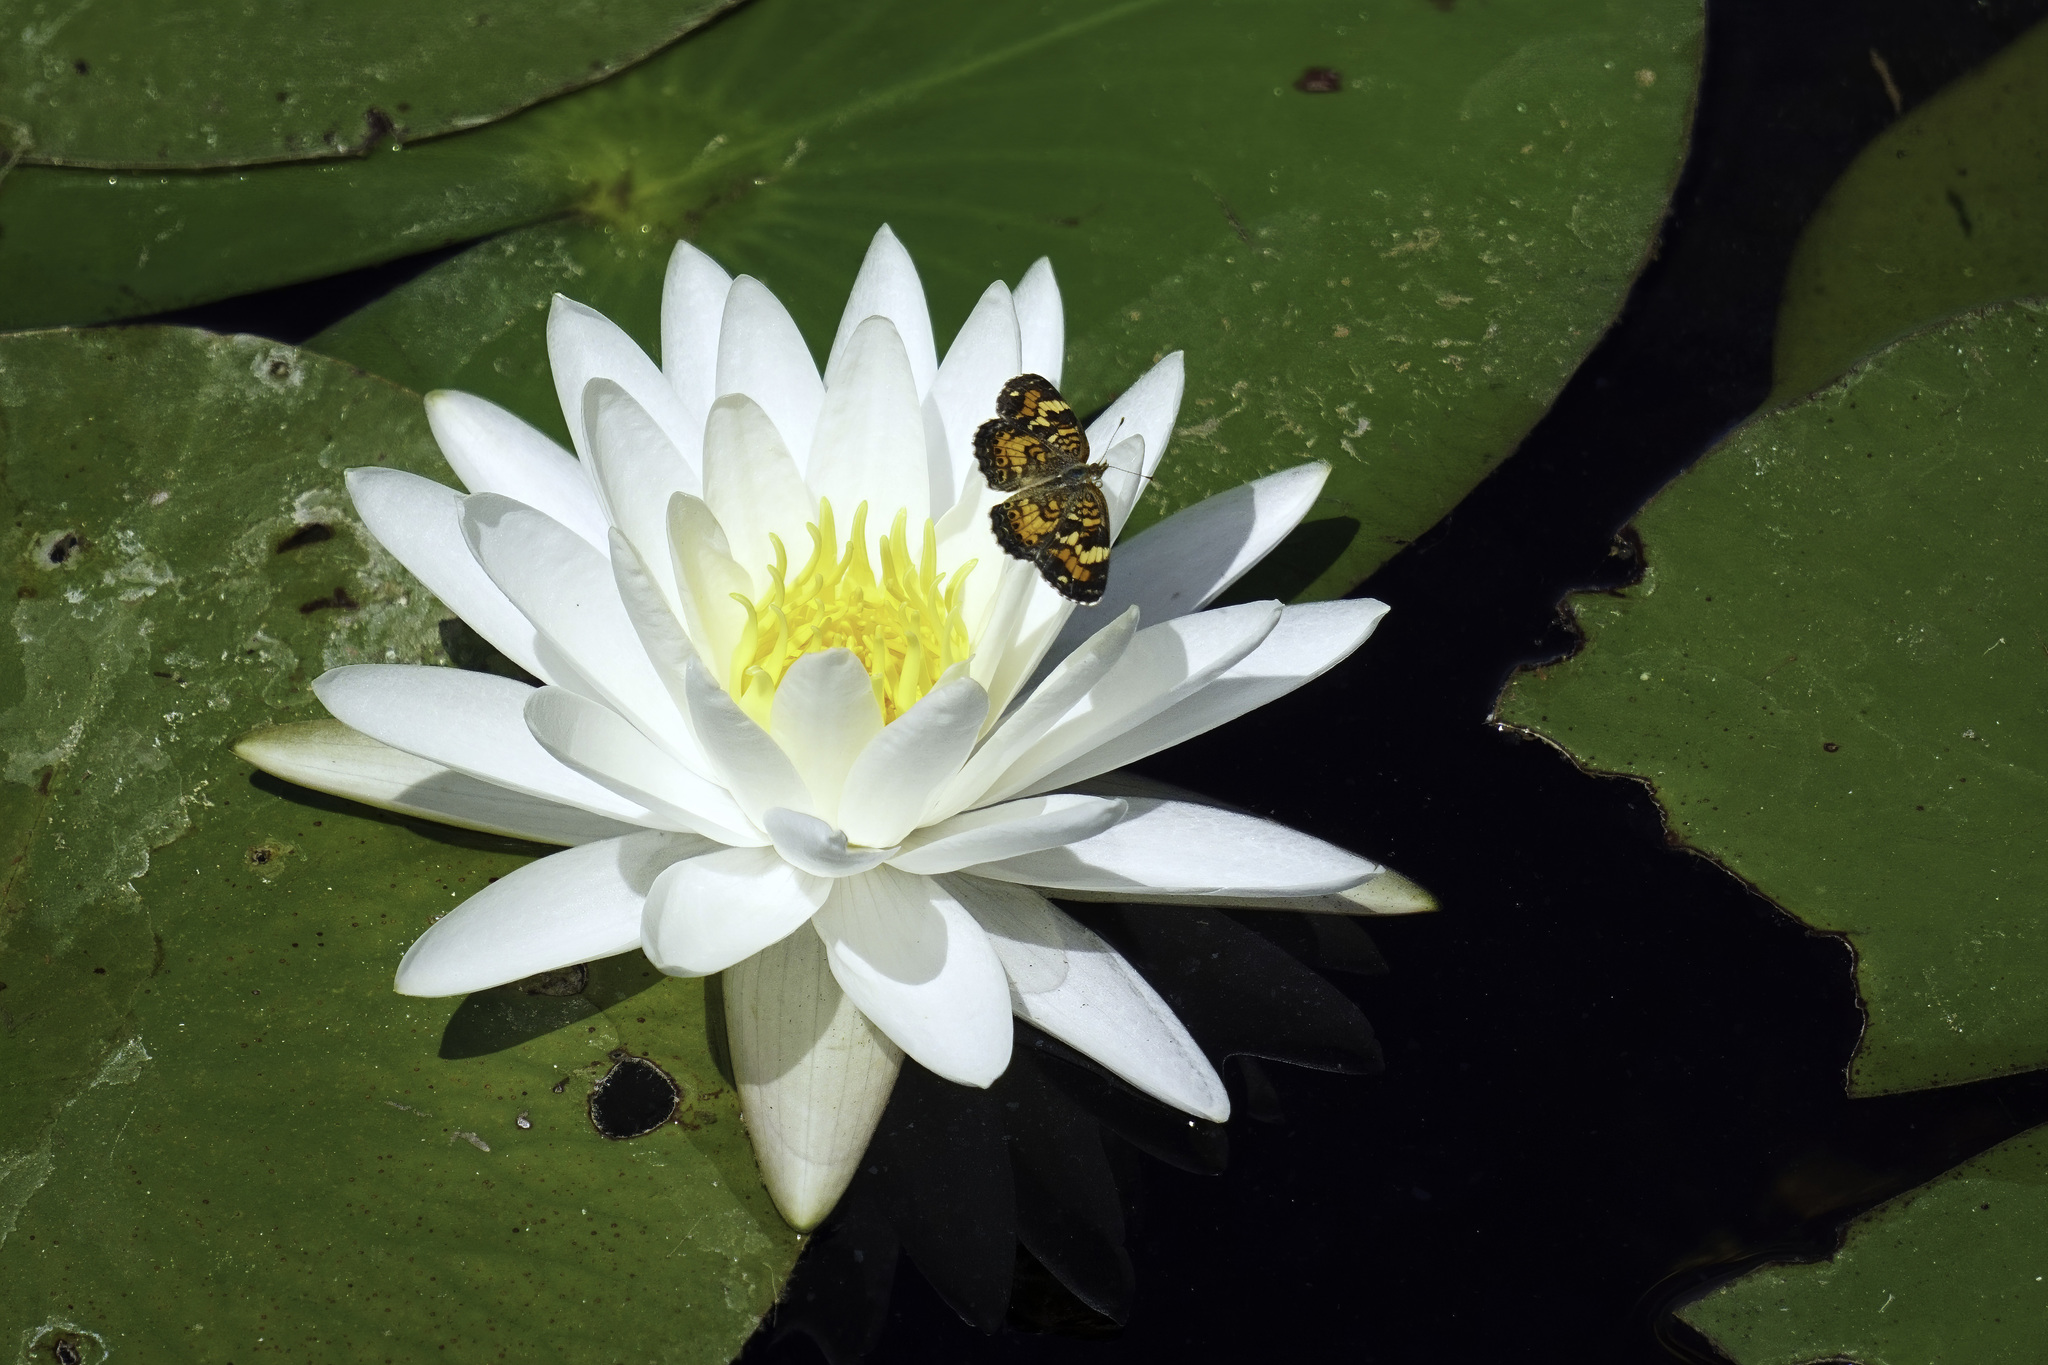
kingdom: Animalia
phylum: Arthropoda
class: Insecta
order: Lepidoptera
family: Nymphalidae
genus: Phyciodes
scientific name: Phyciodes phaon
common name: Phaon crescent
